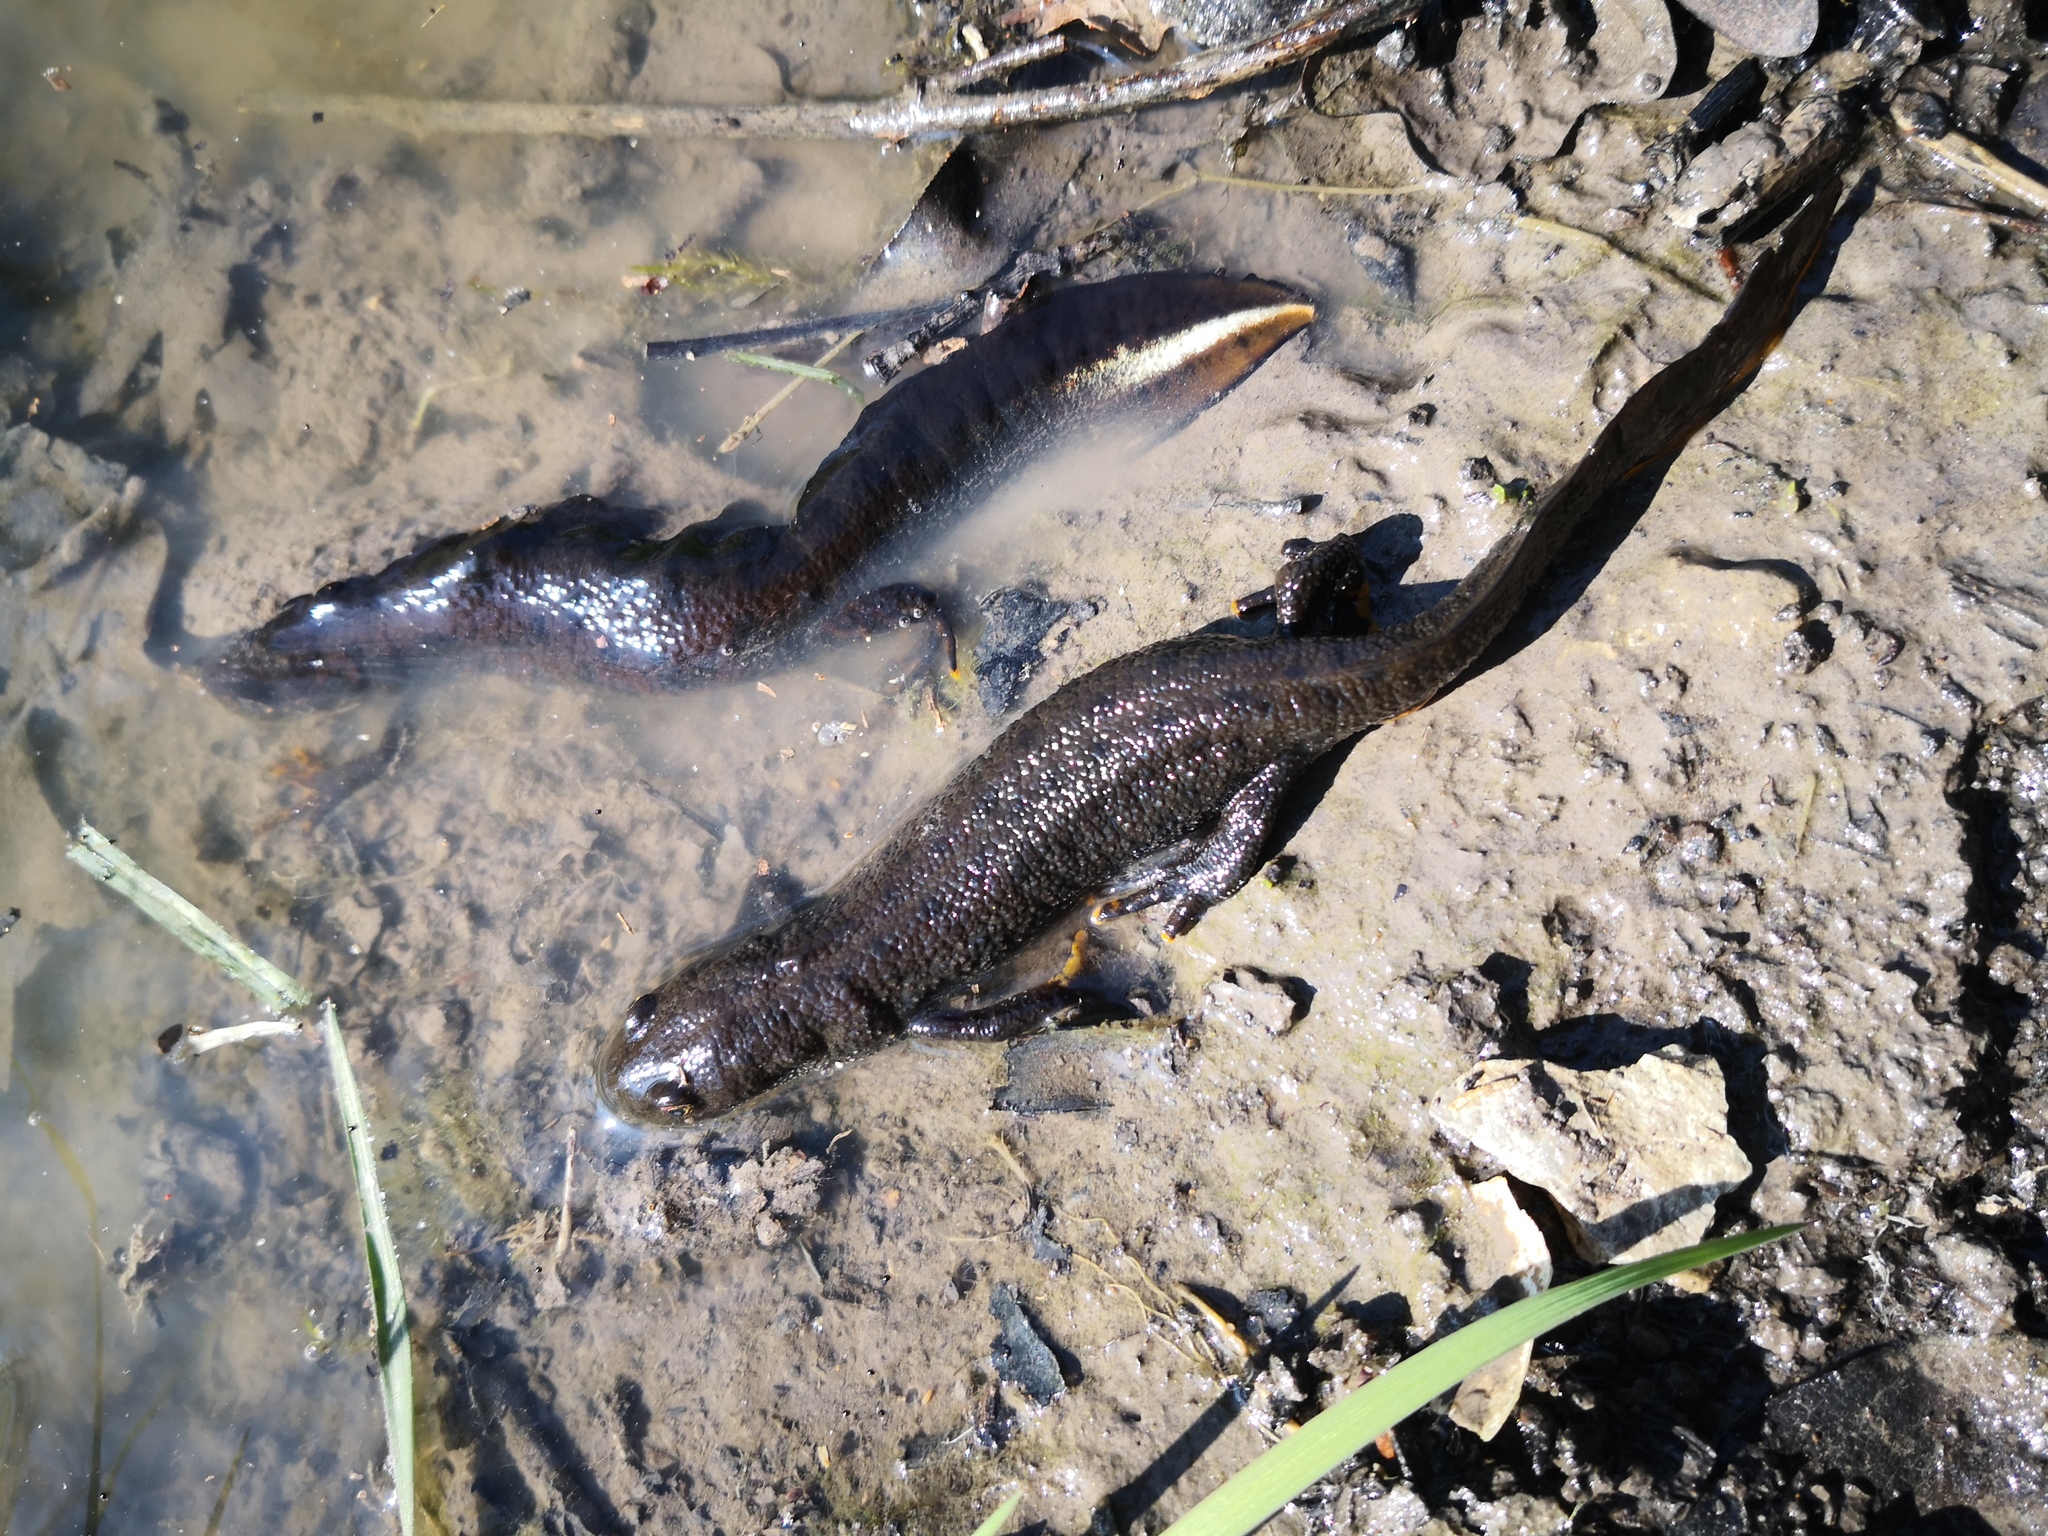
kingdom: Animalia
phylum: Chordata
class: Amphibia
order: Caudata
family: Salamandridae
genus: Triturus
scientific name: Triturus cristatus
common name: Crested newt
